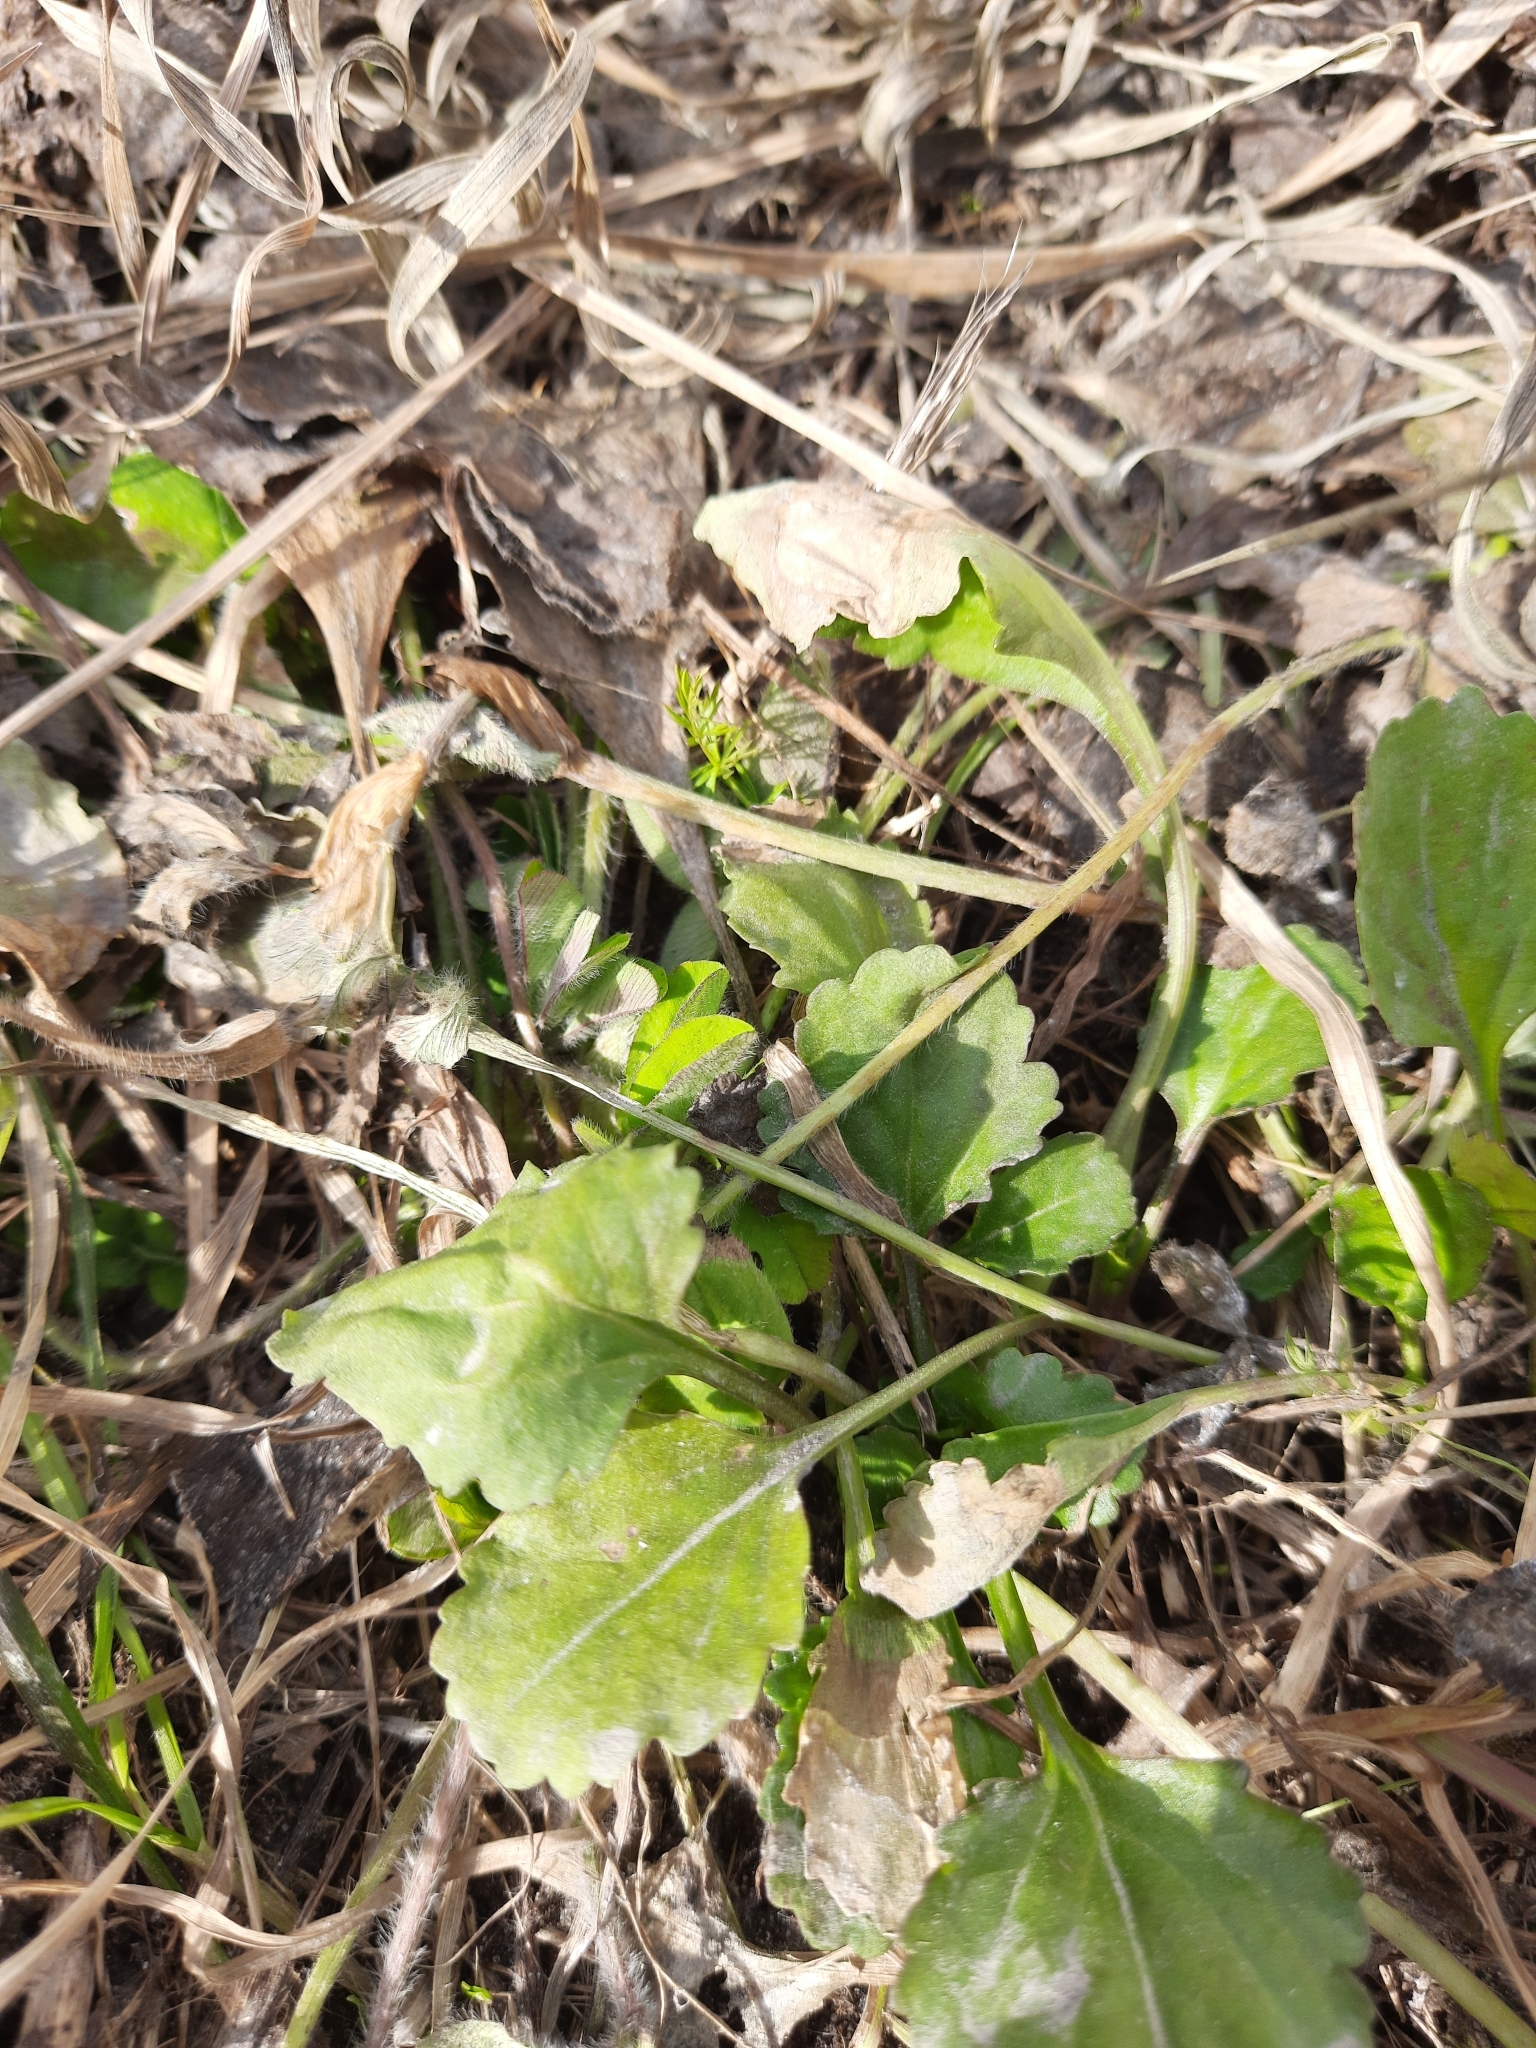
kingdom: Plantae
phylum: Tracheophyta
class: Magnoliopsida
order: Asterales
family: Asteraceae
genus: Leucanthemum
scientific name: Leucanthemum ircutianum
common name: Daisy
